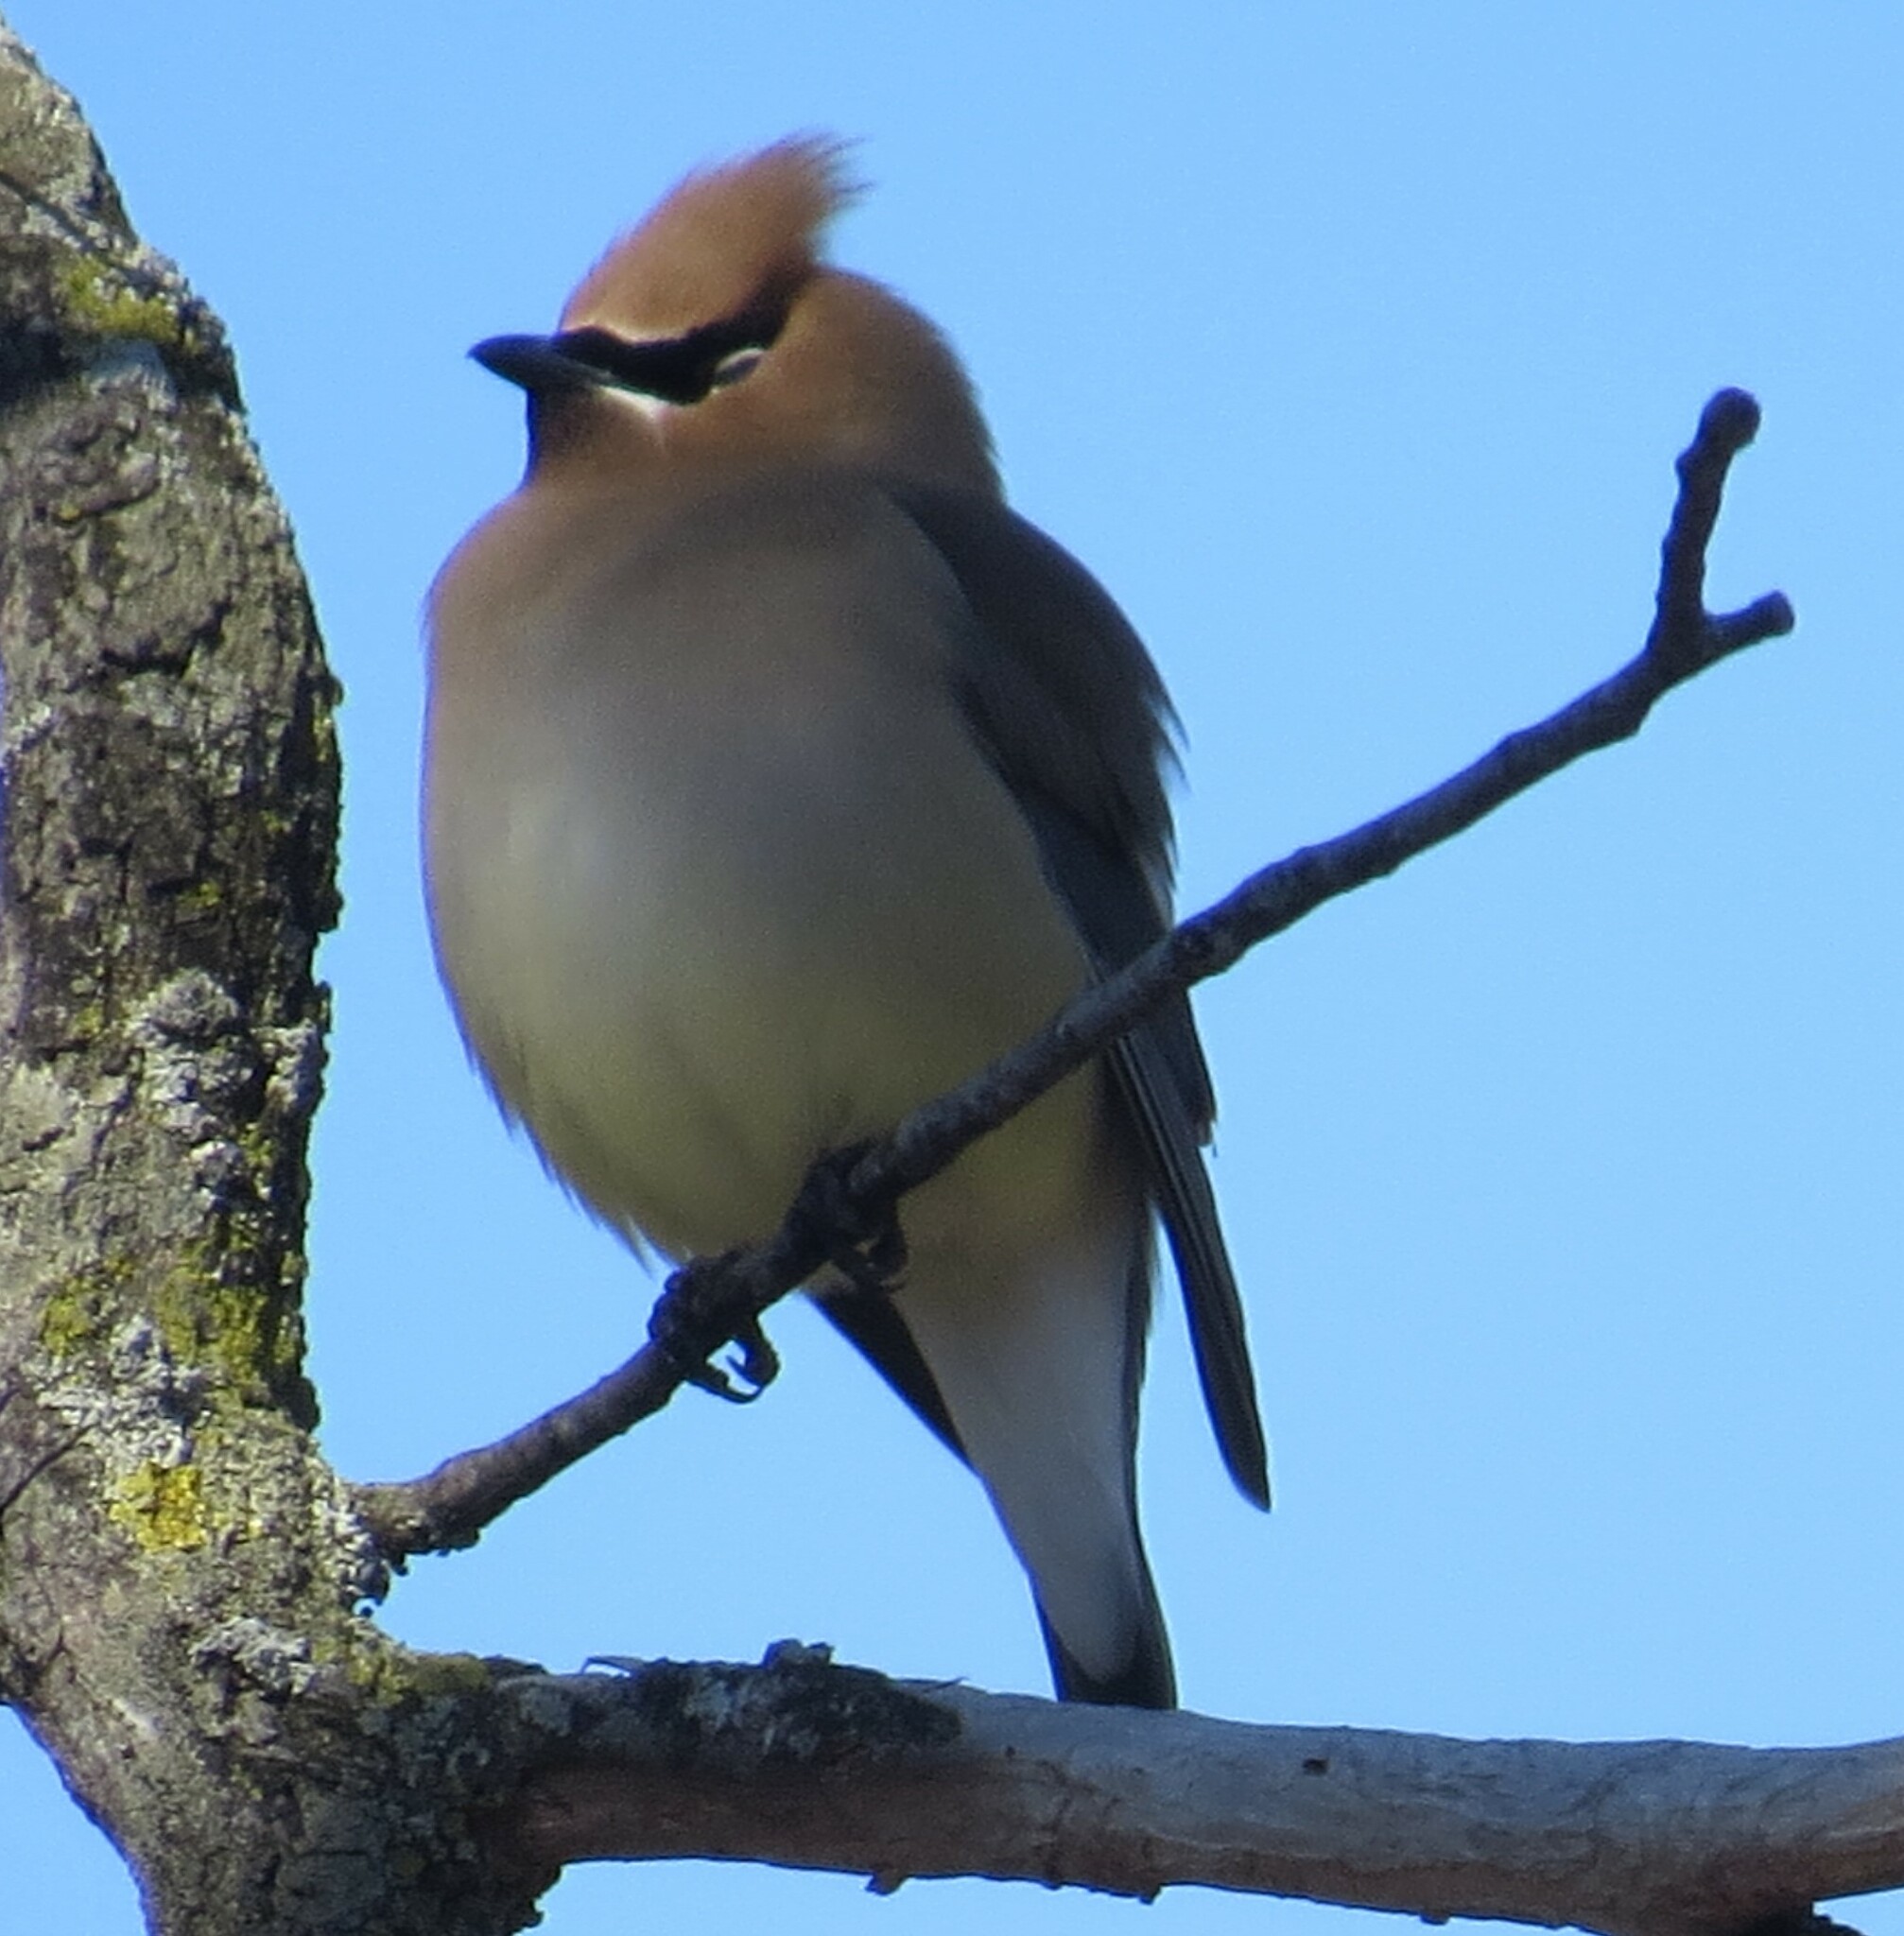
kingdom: Animalia
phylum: Chordata
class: Aves
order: Passeriformes
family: Bombycillidae
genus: Bombycilla
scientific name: Bombycilla cedrorum
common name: Cedar waxwing
